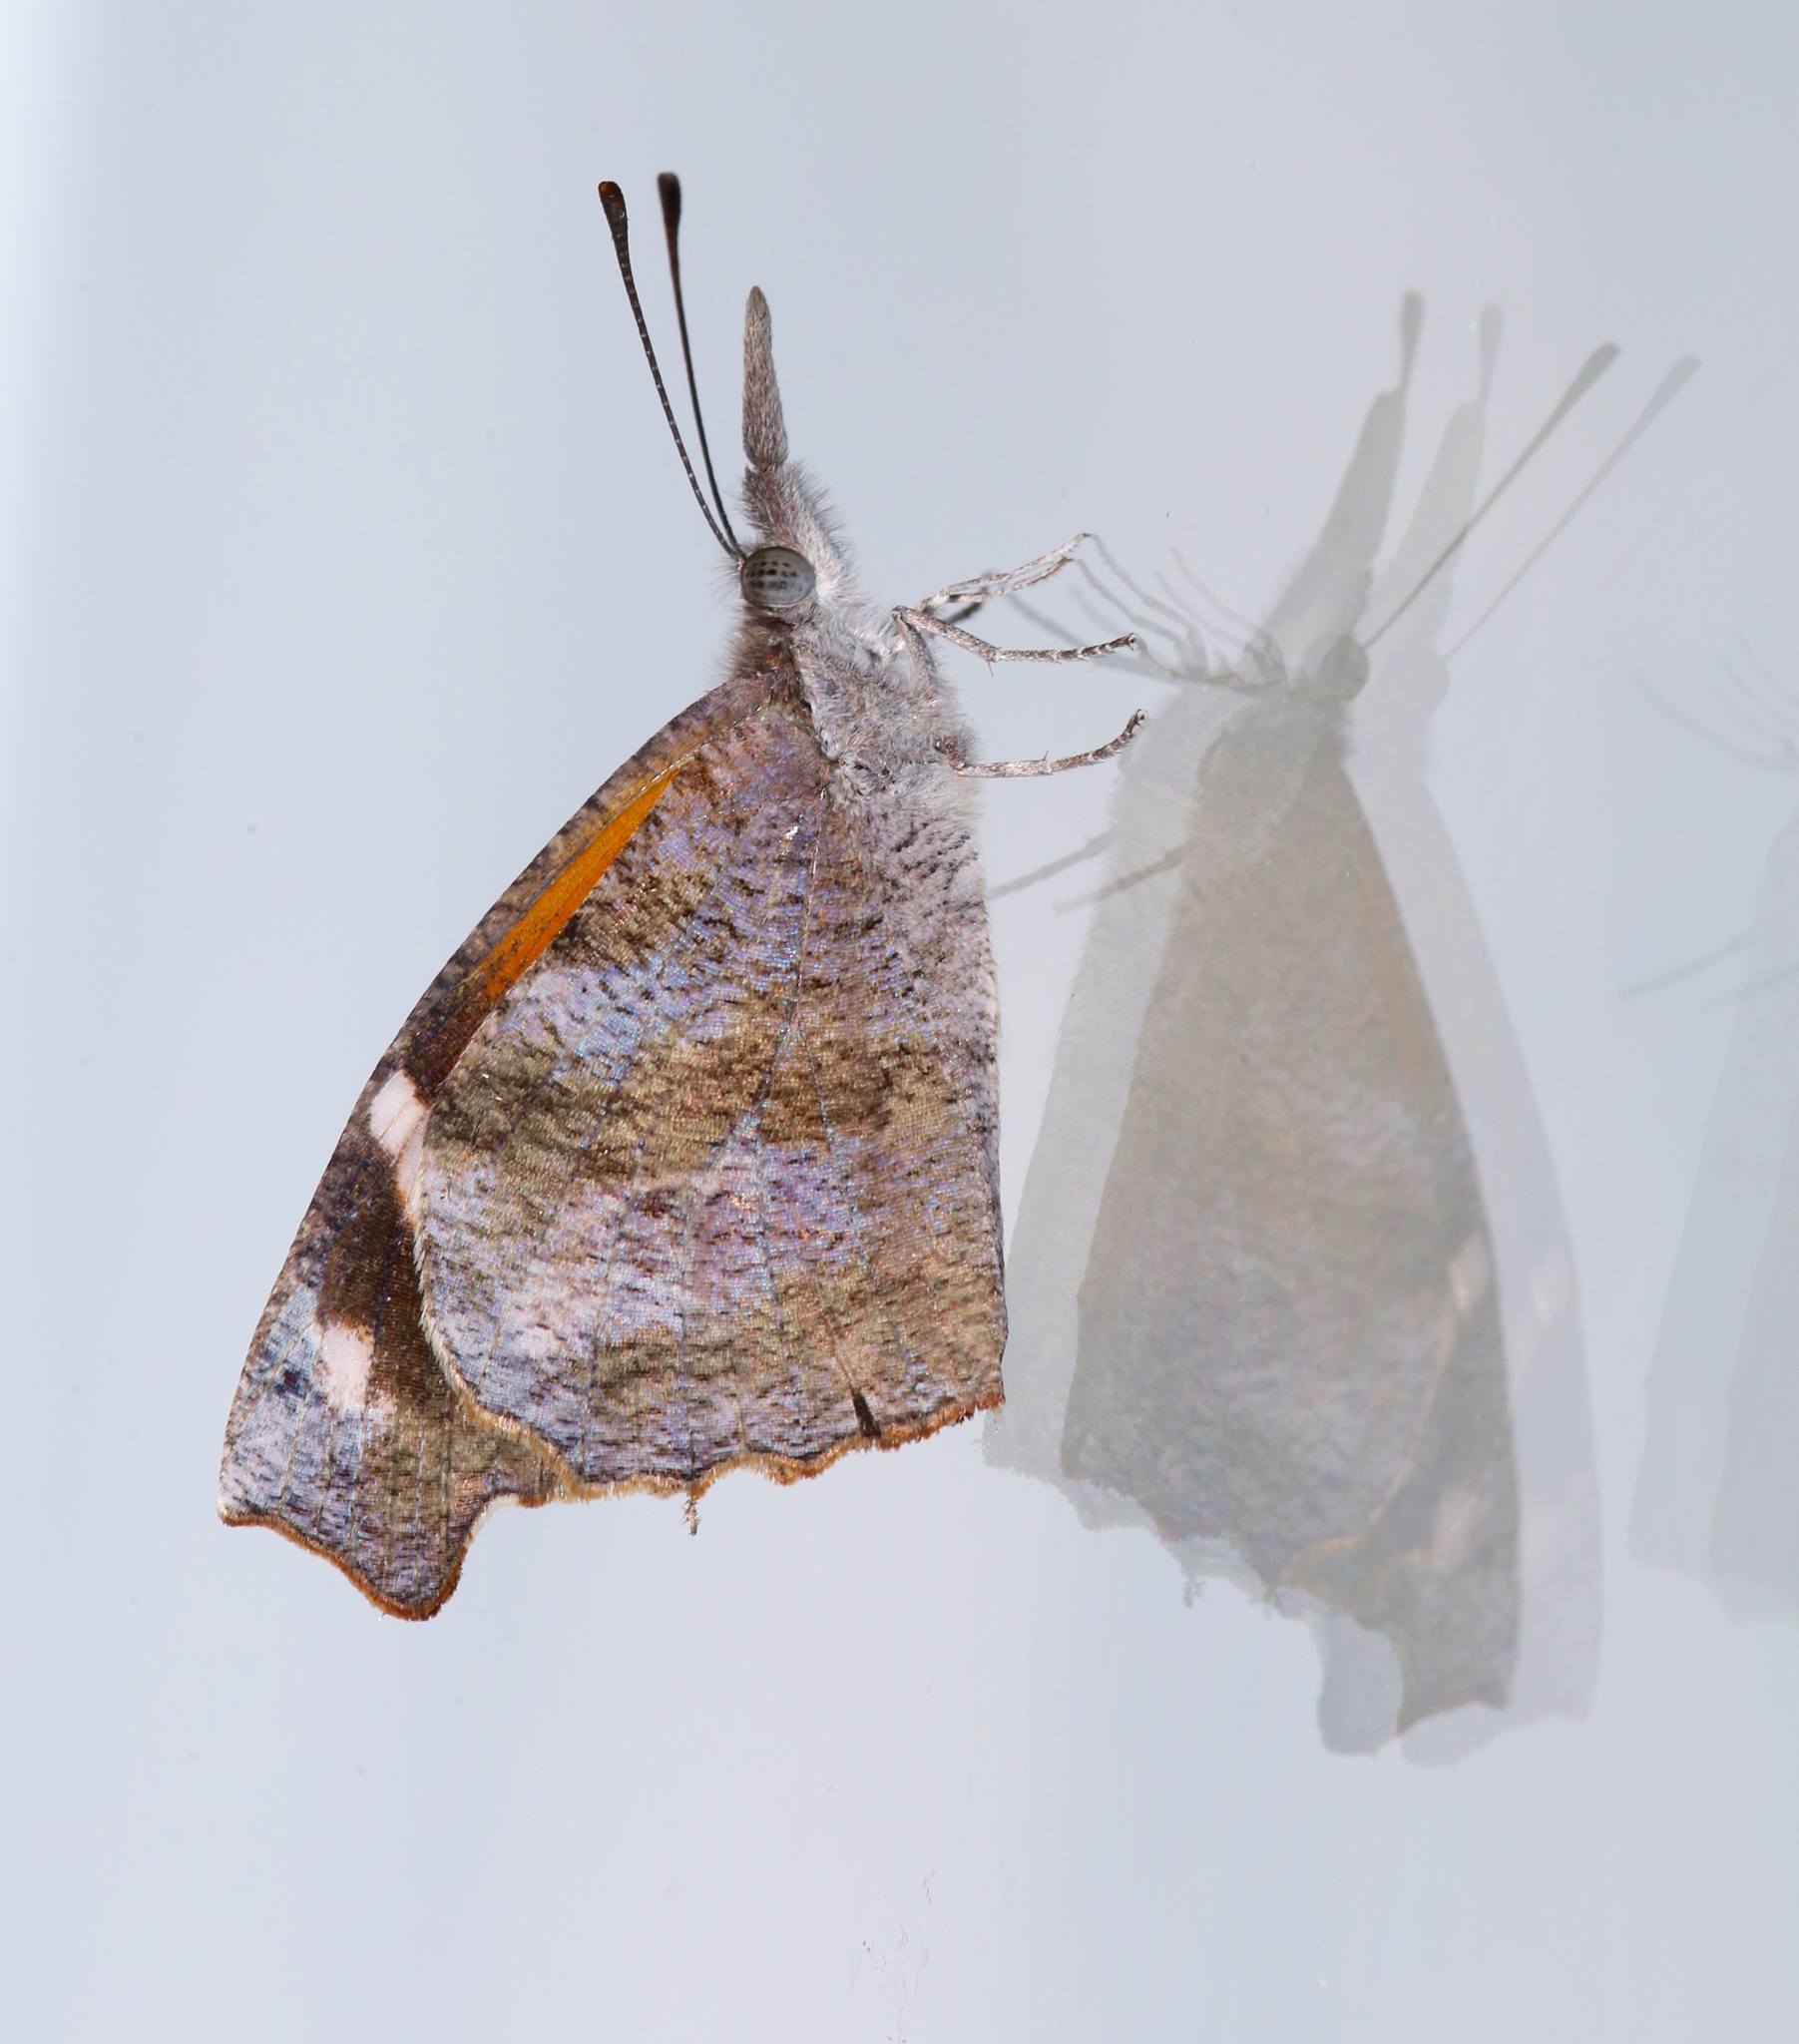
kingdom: Animalia
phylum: Arthropoda
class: Insecta
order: Lepidoptera
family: Nymphalidae
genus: Libytheana
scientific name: Libytheana carinenta
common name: American snout
